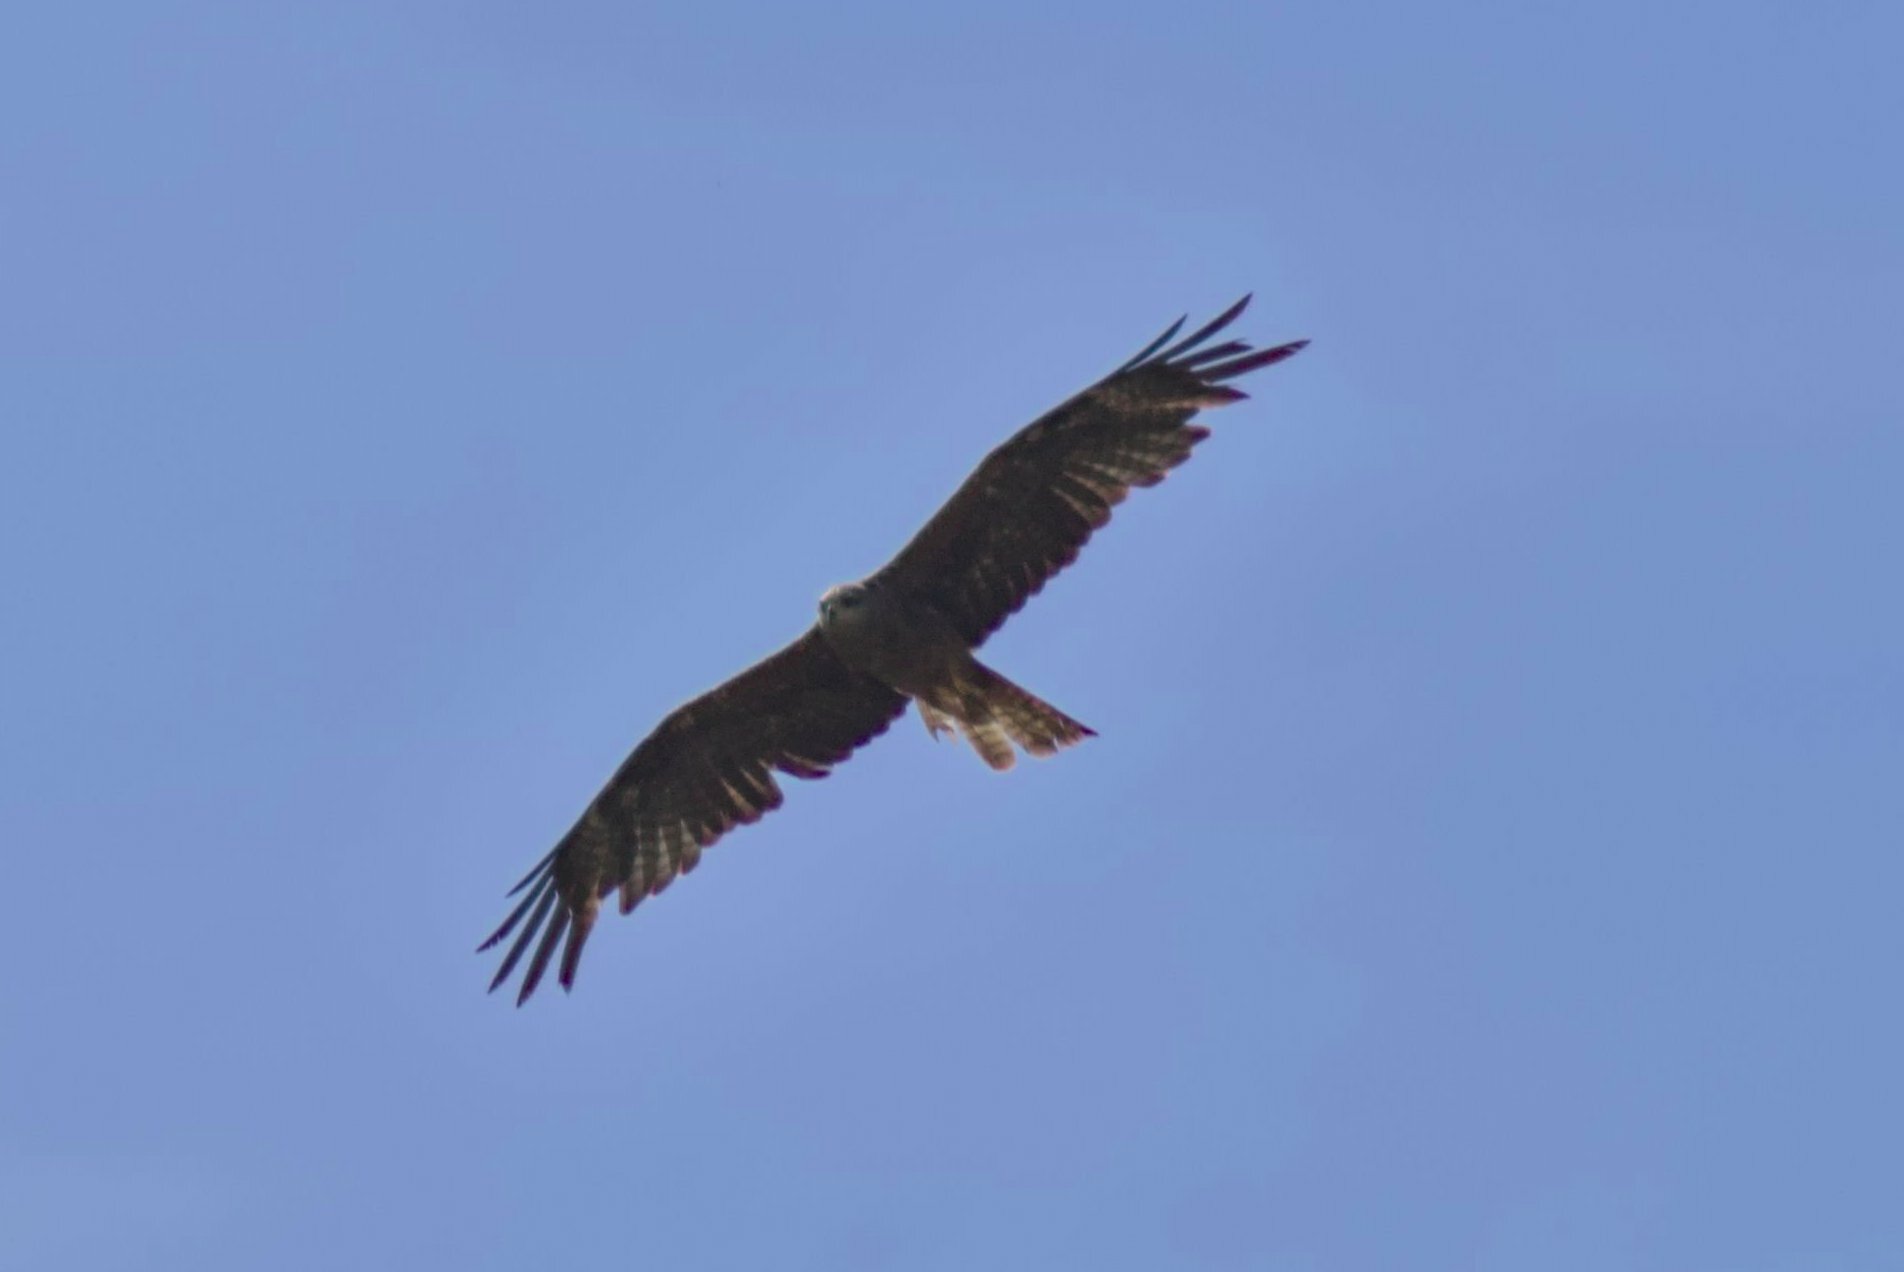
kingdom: Animalia
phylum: Chordata
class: Aves
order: Accipitriformes
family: Accipitridae
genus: Milvus
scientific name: Milvus migrans
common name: Black kite
